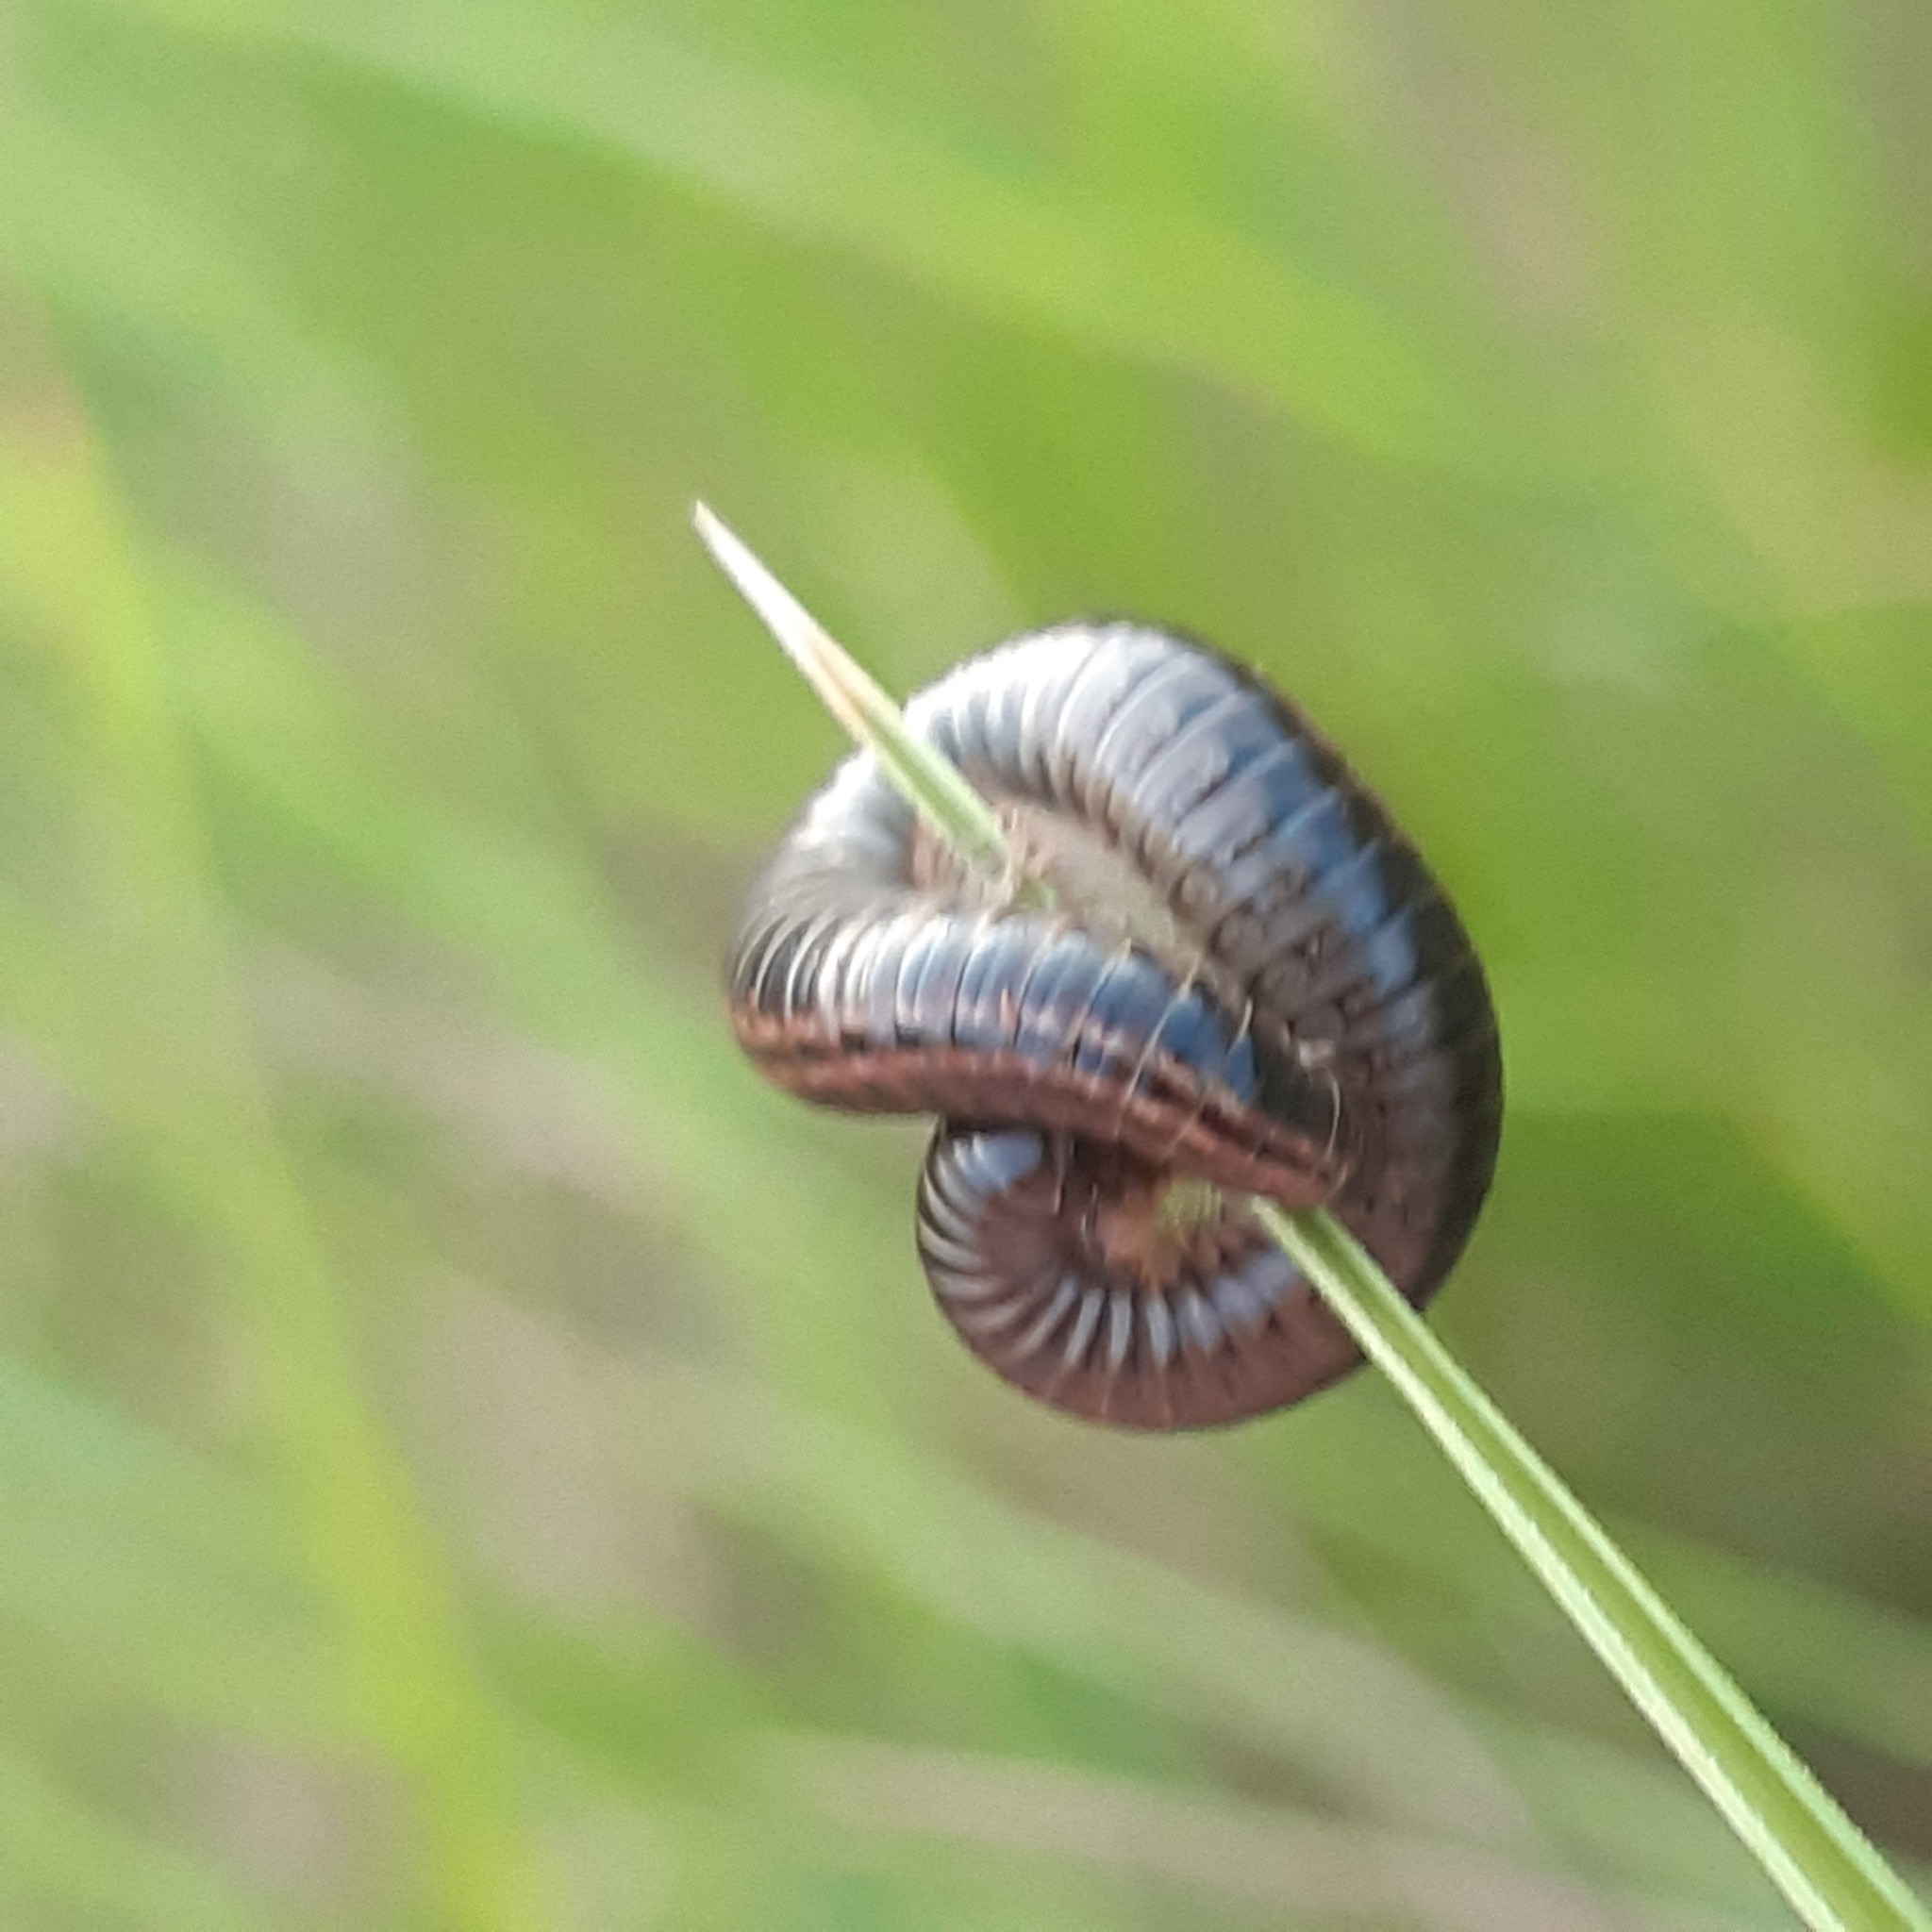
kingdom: Animalia
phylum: Arthropoda
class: Diplopoda
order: Julida
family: Julidae
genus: Ommatoiulus
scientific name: Ommatoiulus sabulosus
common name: Striped millipede
